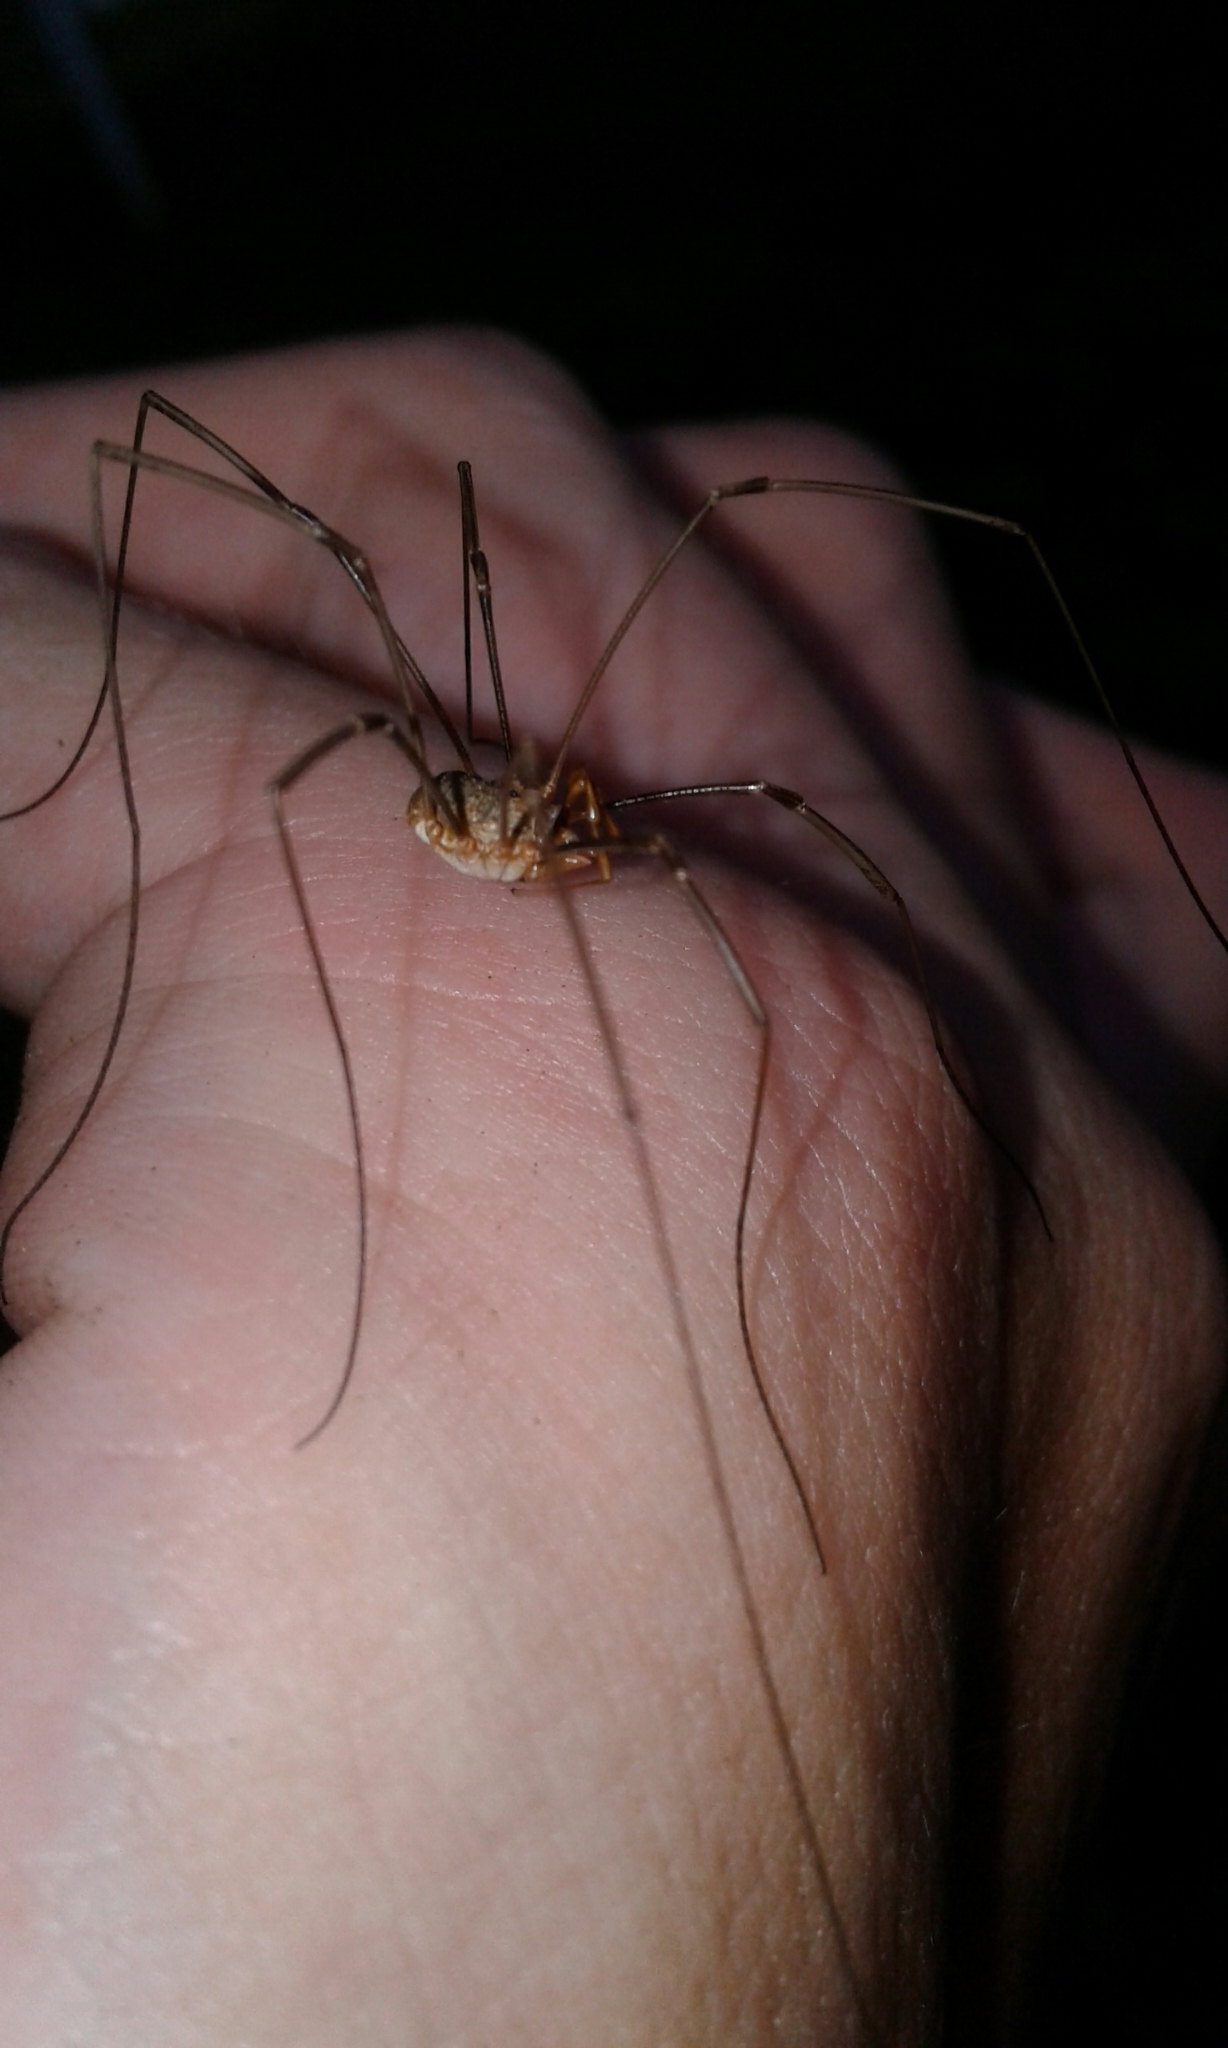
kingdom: Animalia
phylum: Arthropoda
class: Arachnida
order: Opiliones
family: Phalangiidae
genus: Phalangium
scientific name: Phalangium opilio
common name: Daddy longleg
